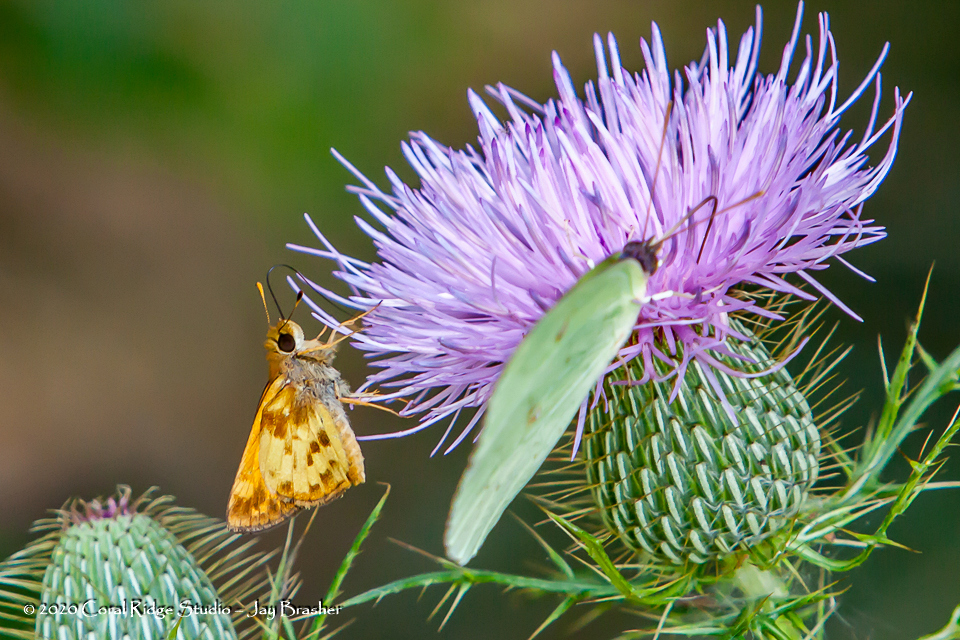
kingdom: Animalia
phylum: Arthropoda
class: Insecta
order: Lepidoptera
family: Hesperiidae
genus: Lon
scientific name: Lon zabulon
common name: Zabulon skipper
